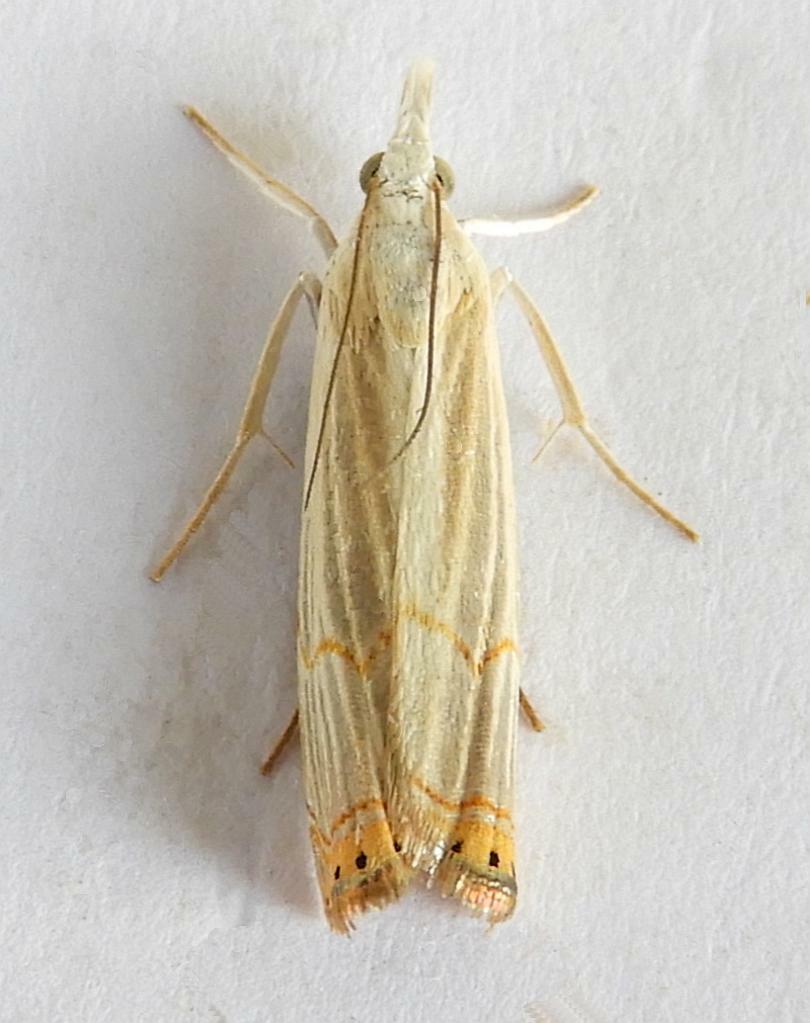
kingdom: Animalia
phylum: Arthropoda
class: Insecta
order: Lepidoptera
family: Crambidae
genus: Parapediasia
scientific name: Parapediasia decorellus
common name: Graceful grass-veneer
